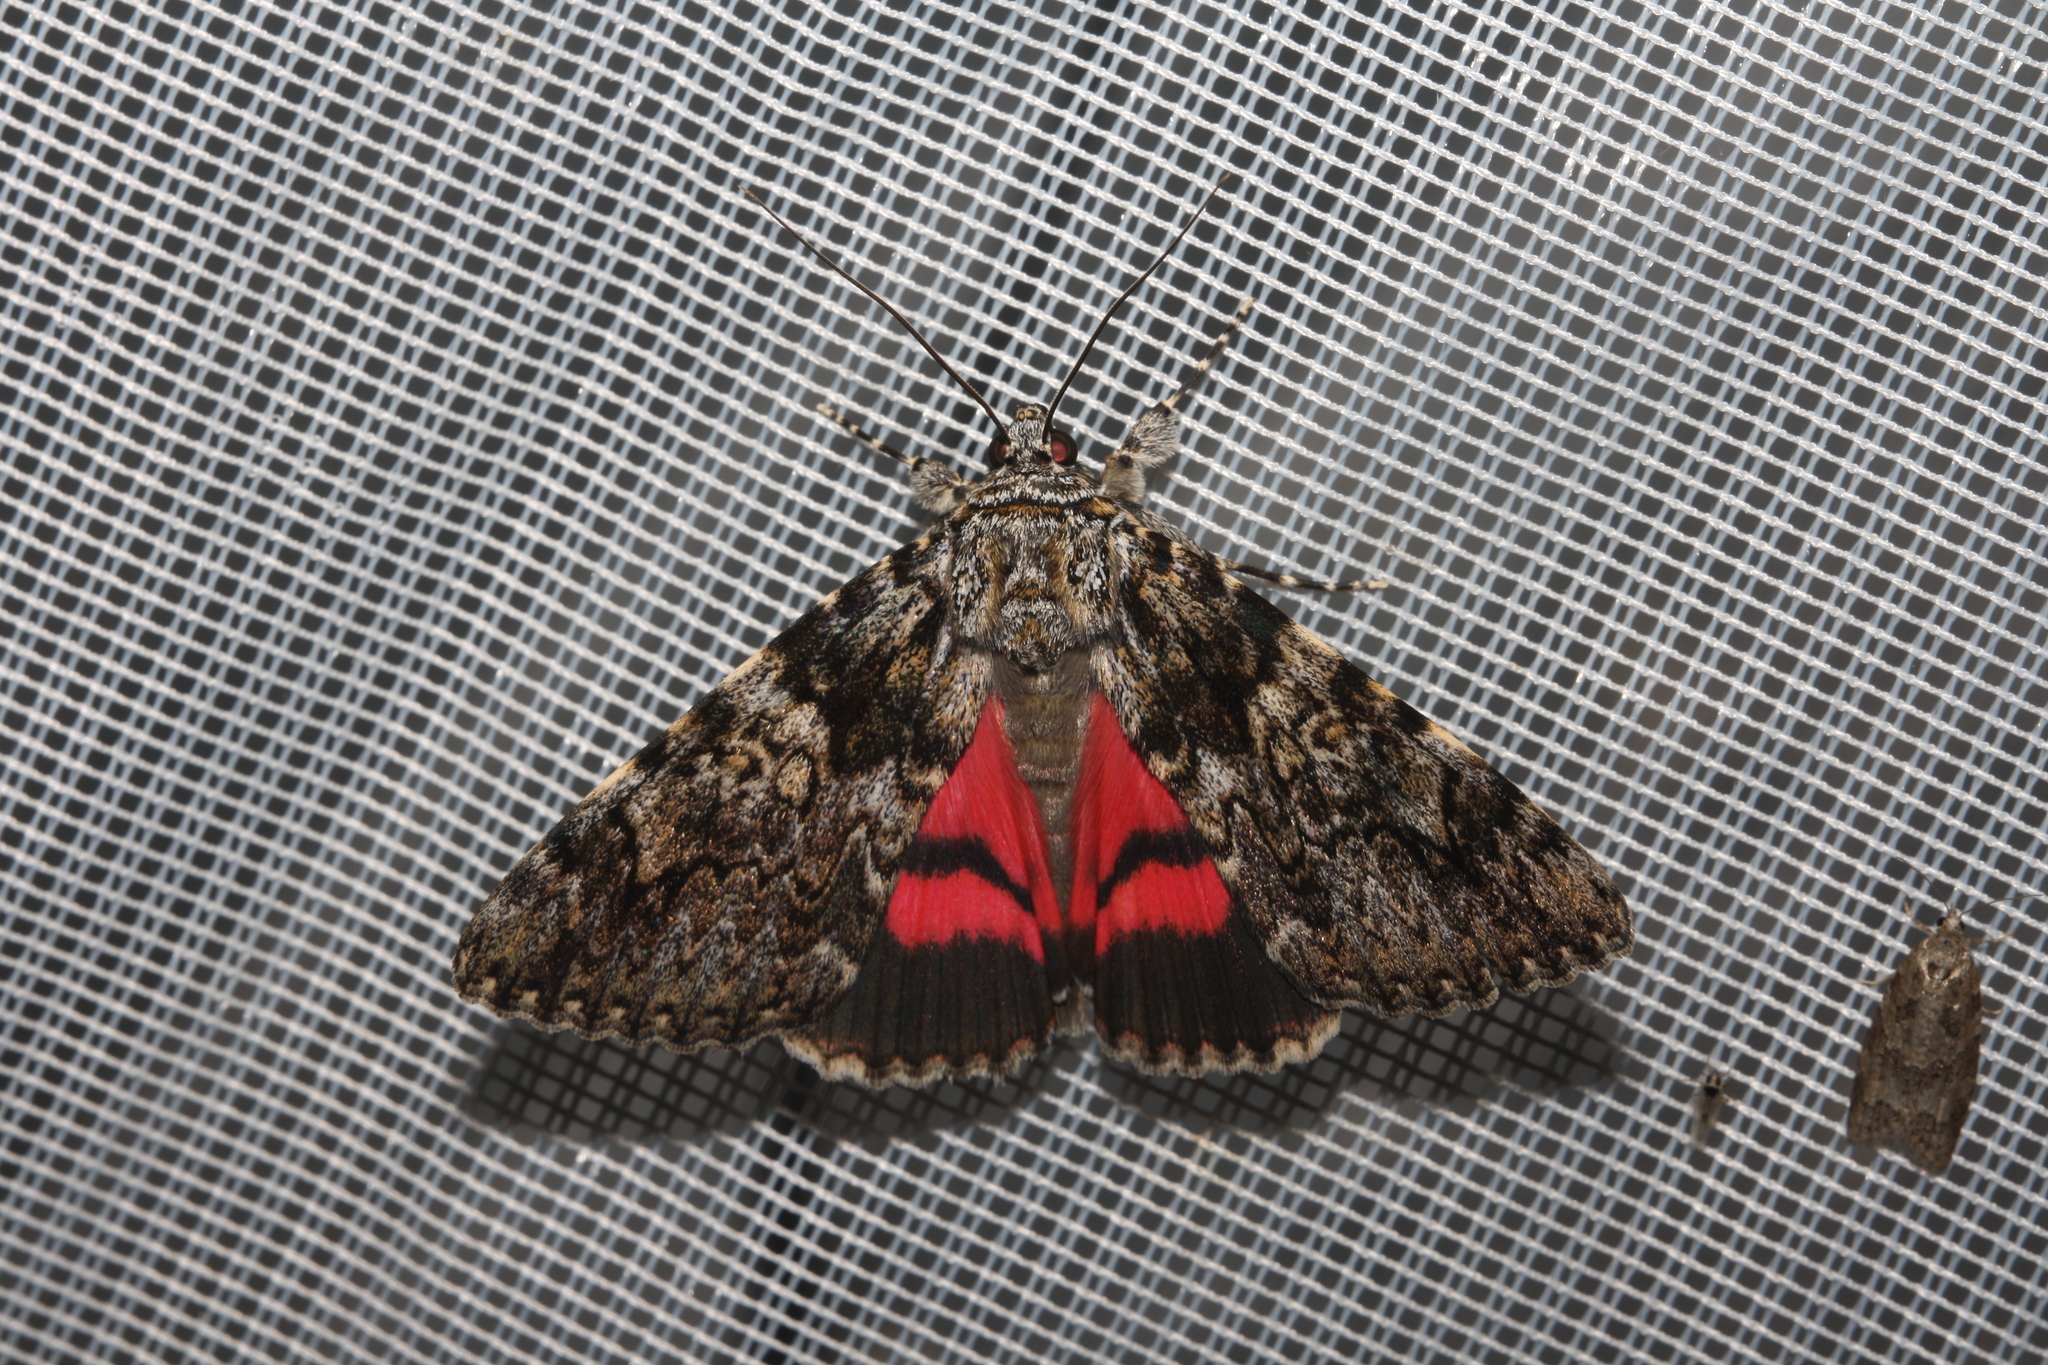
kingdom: Animalia
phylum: Arthropoda
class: Insecta
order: Lepidoptera
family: Erebidae
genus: Catocala
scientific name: Catocala promissa
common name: Light crimson underwing
